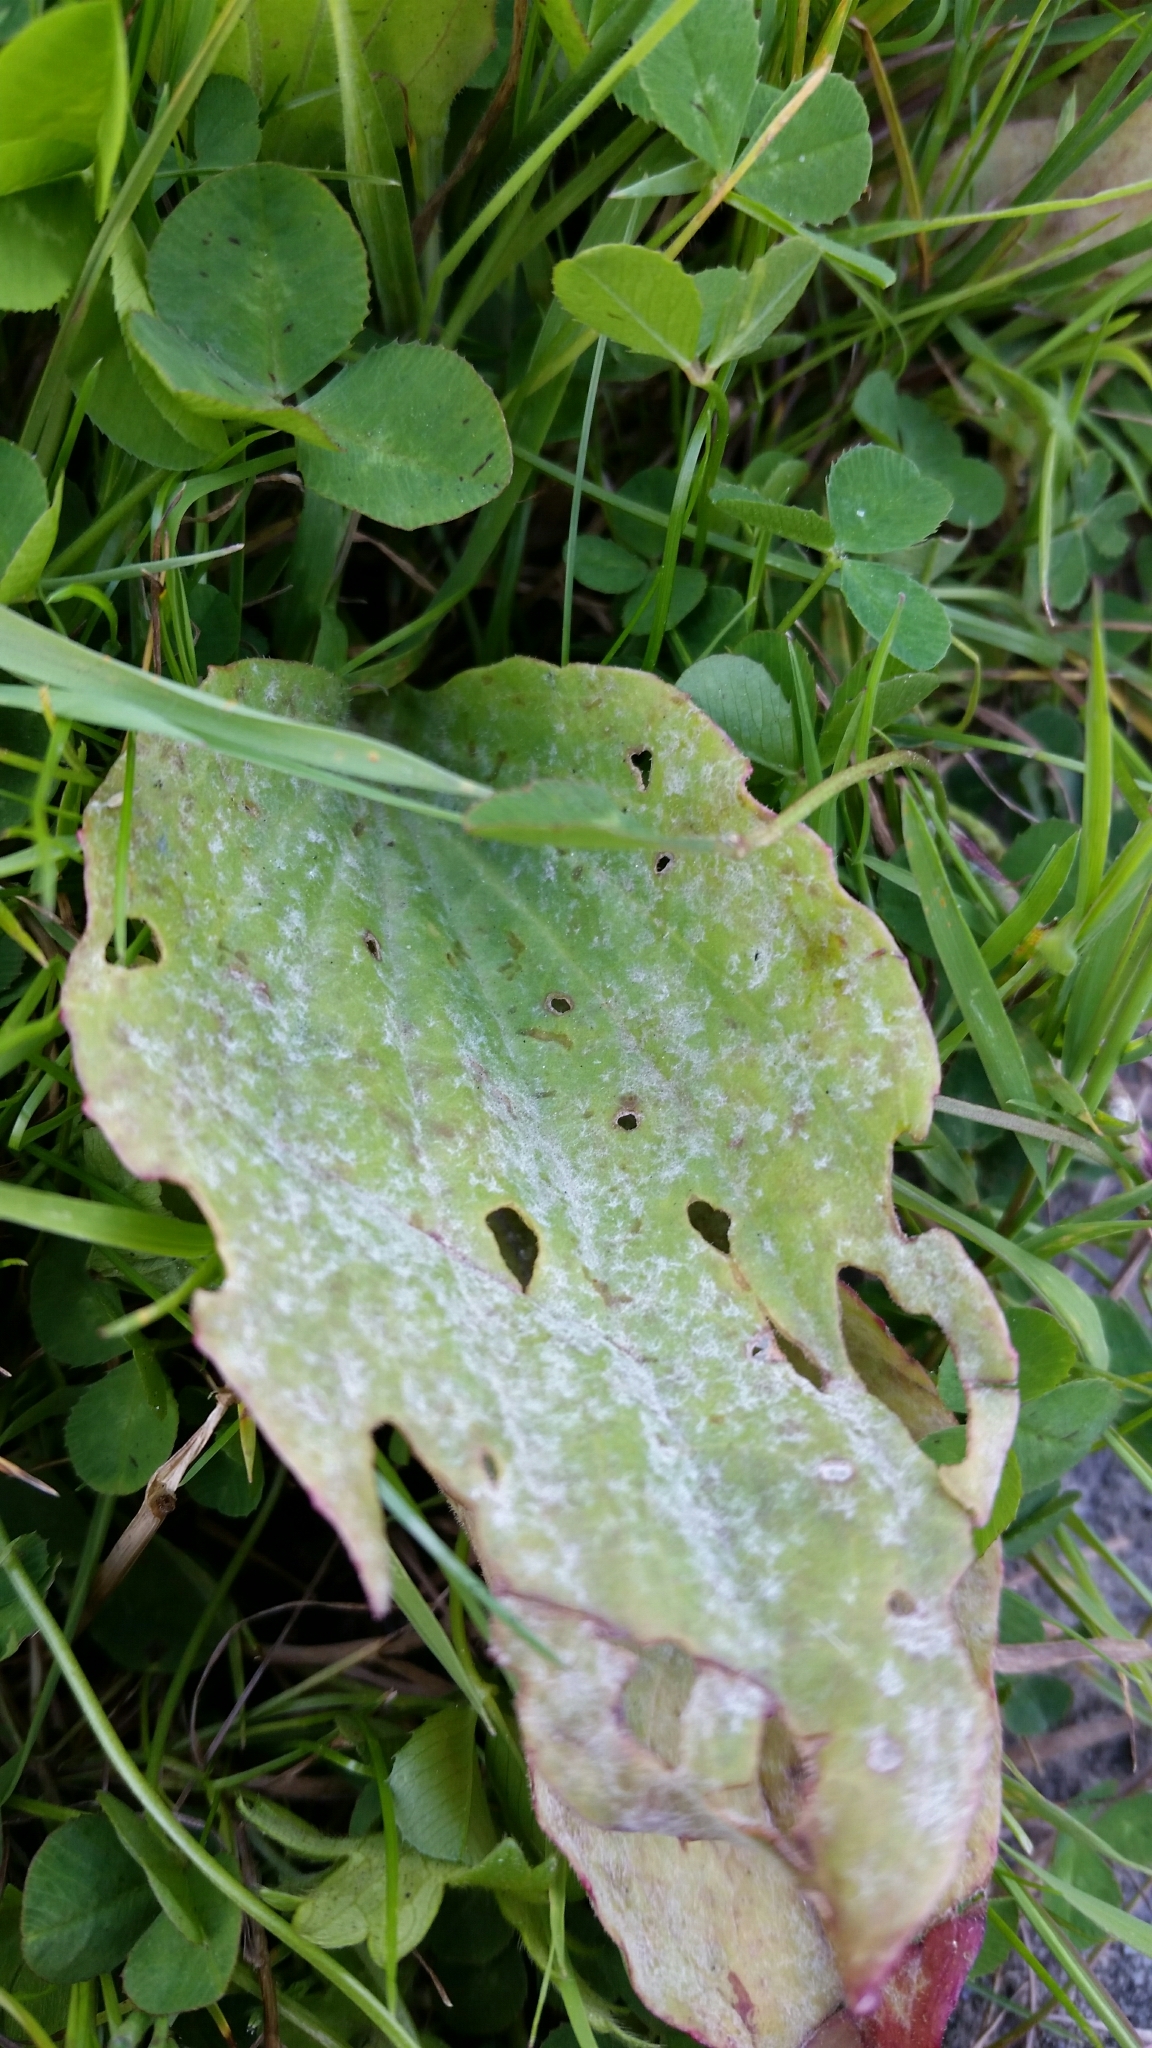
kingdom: Fungi
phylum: Ascomycota
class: Leotiomycetes
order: Helotiales
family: Erysiphaceae
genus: Podosphaera
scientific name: Podosphaera aphanis
